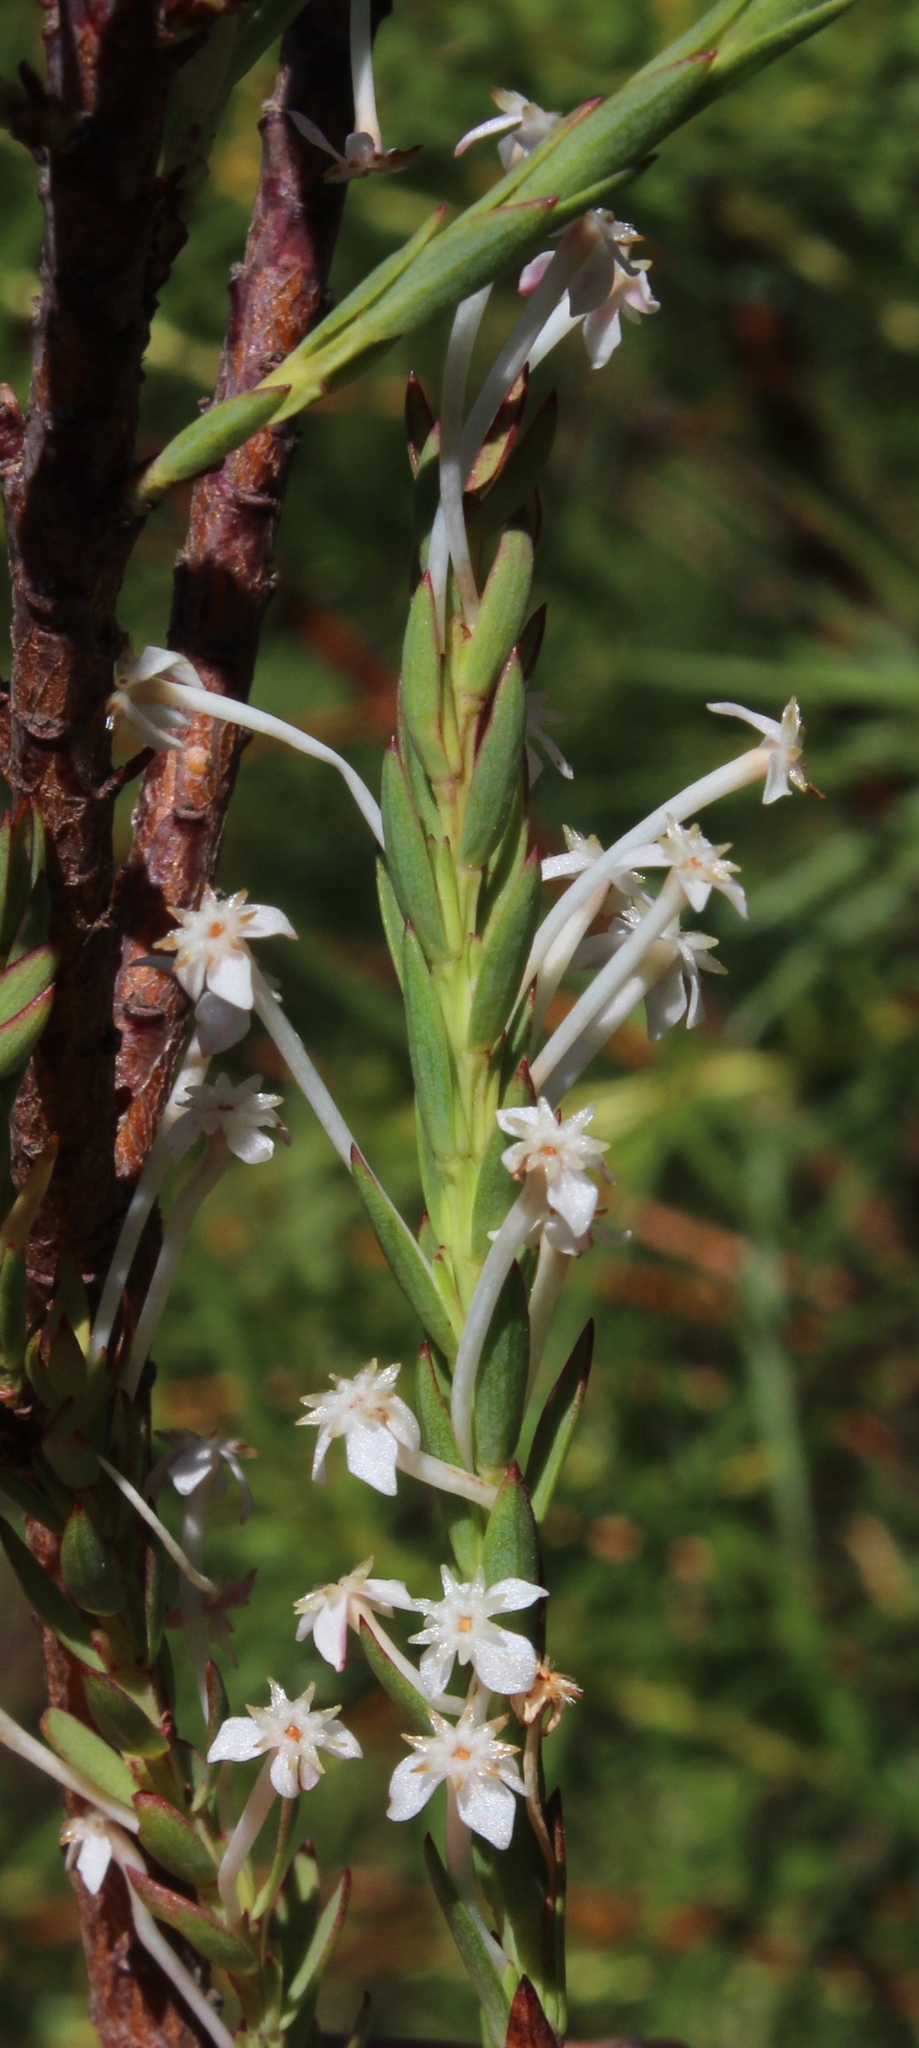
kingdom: Plantae
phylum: Tracheophyta
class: Magnoliopsida
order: Malvales
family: Thymelaeaceae
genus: Struthiola
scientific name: Struthiola myrsinites
